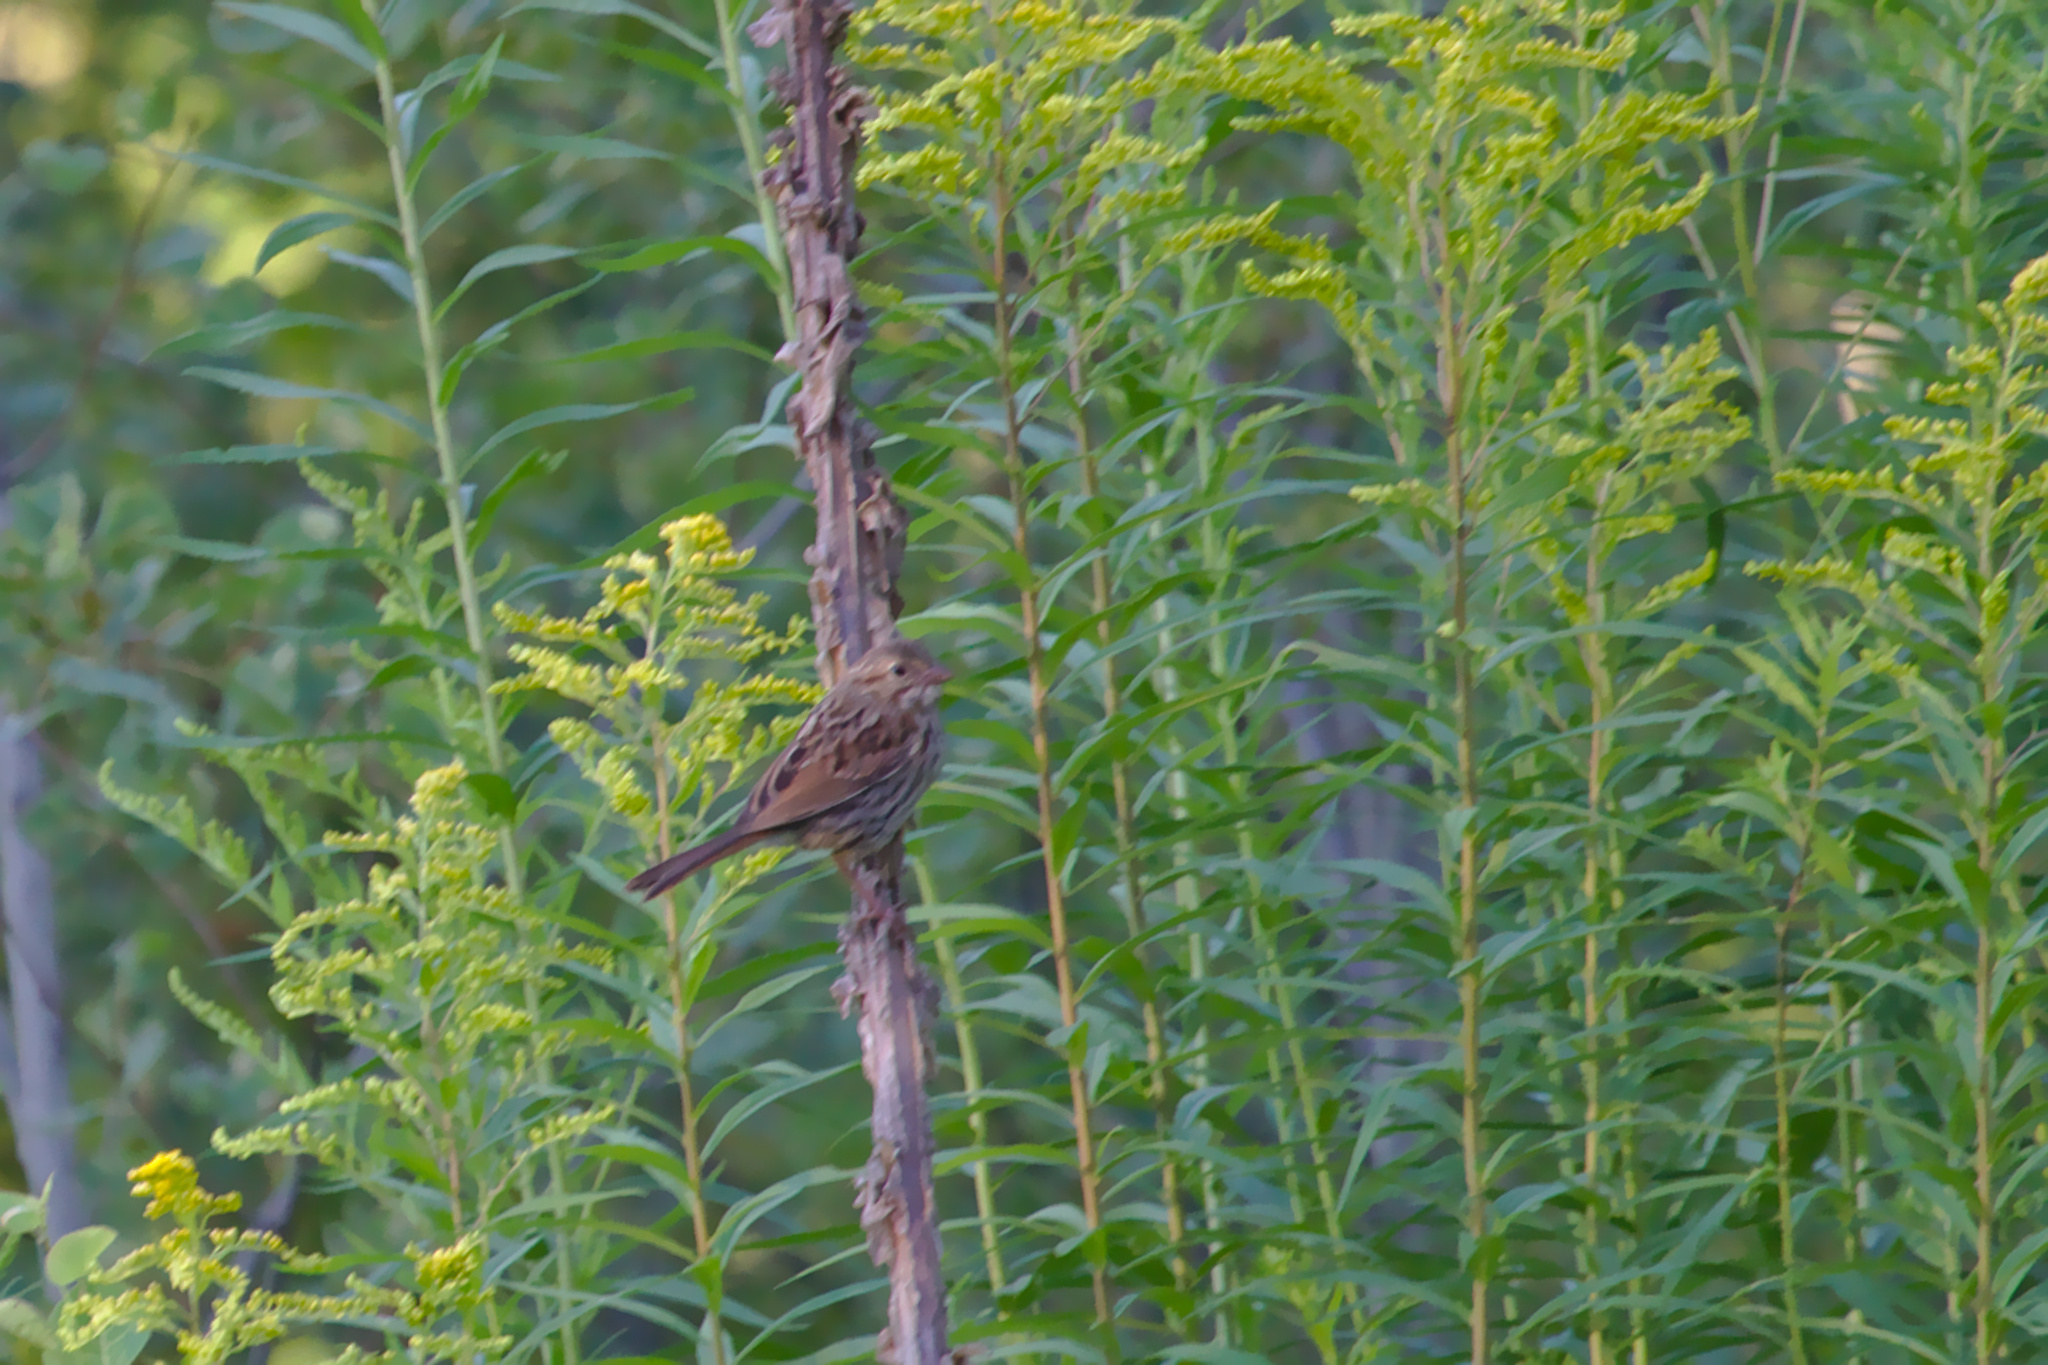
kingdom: Animalia
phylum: Chordata
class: Aves
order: Passeriformes
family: Passerellidae
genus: Melospiza
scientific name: Melospiza melodia
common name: Song sparrow
